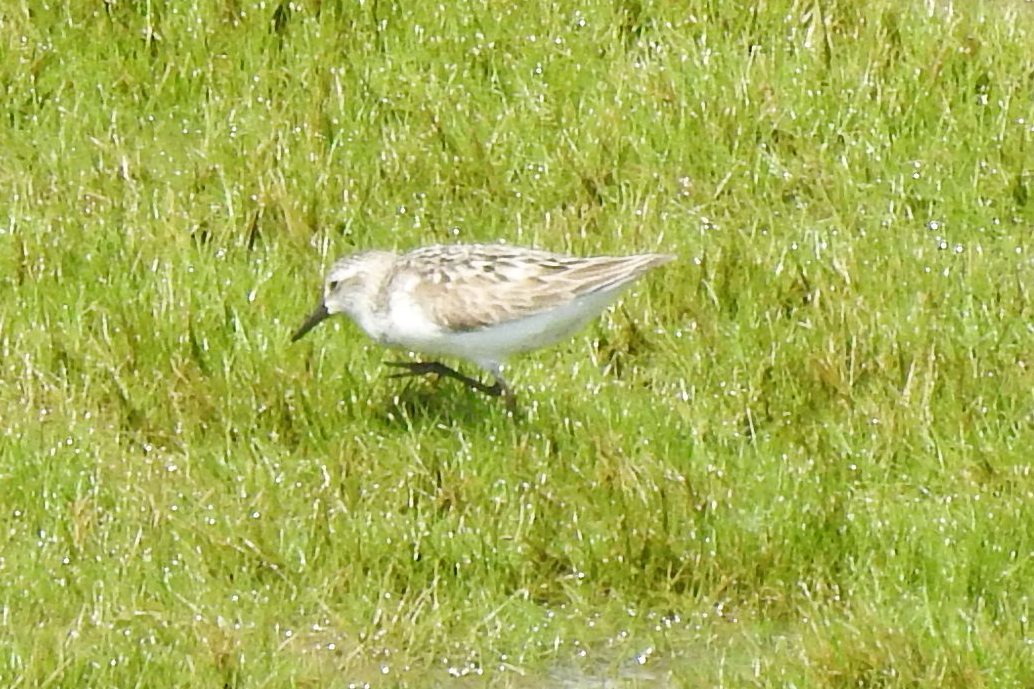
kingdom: Animalia
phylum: Chordata
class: Aves
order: Charadriiformes
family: Scolopacidae
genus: Calidris
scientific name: Calidris pusilla
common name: Semipalmated sandpiper
